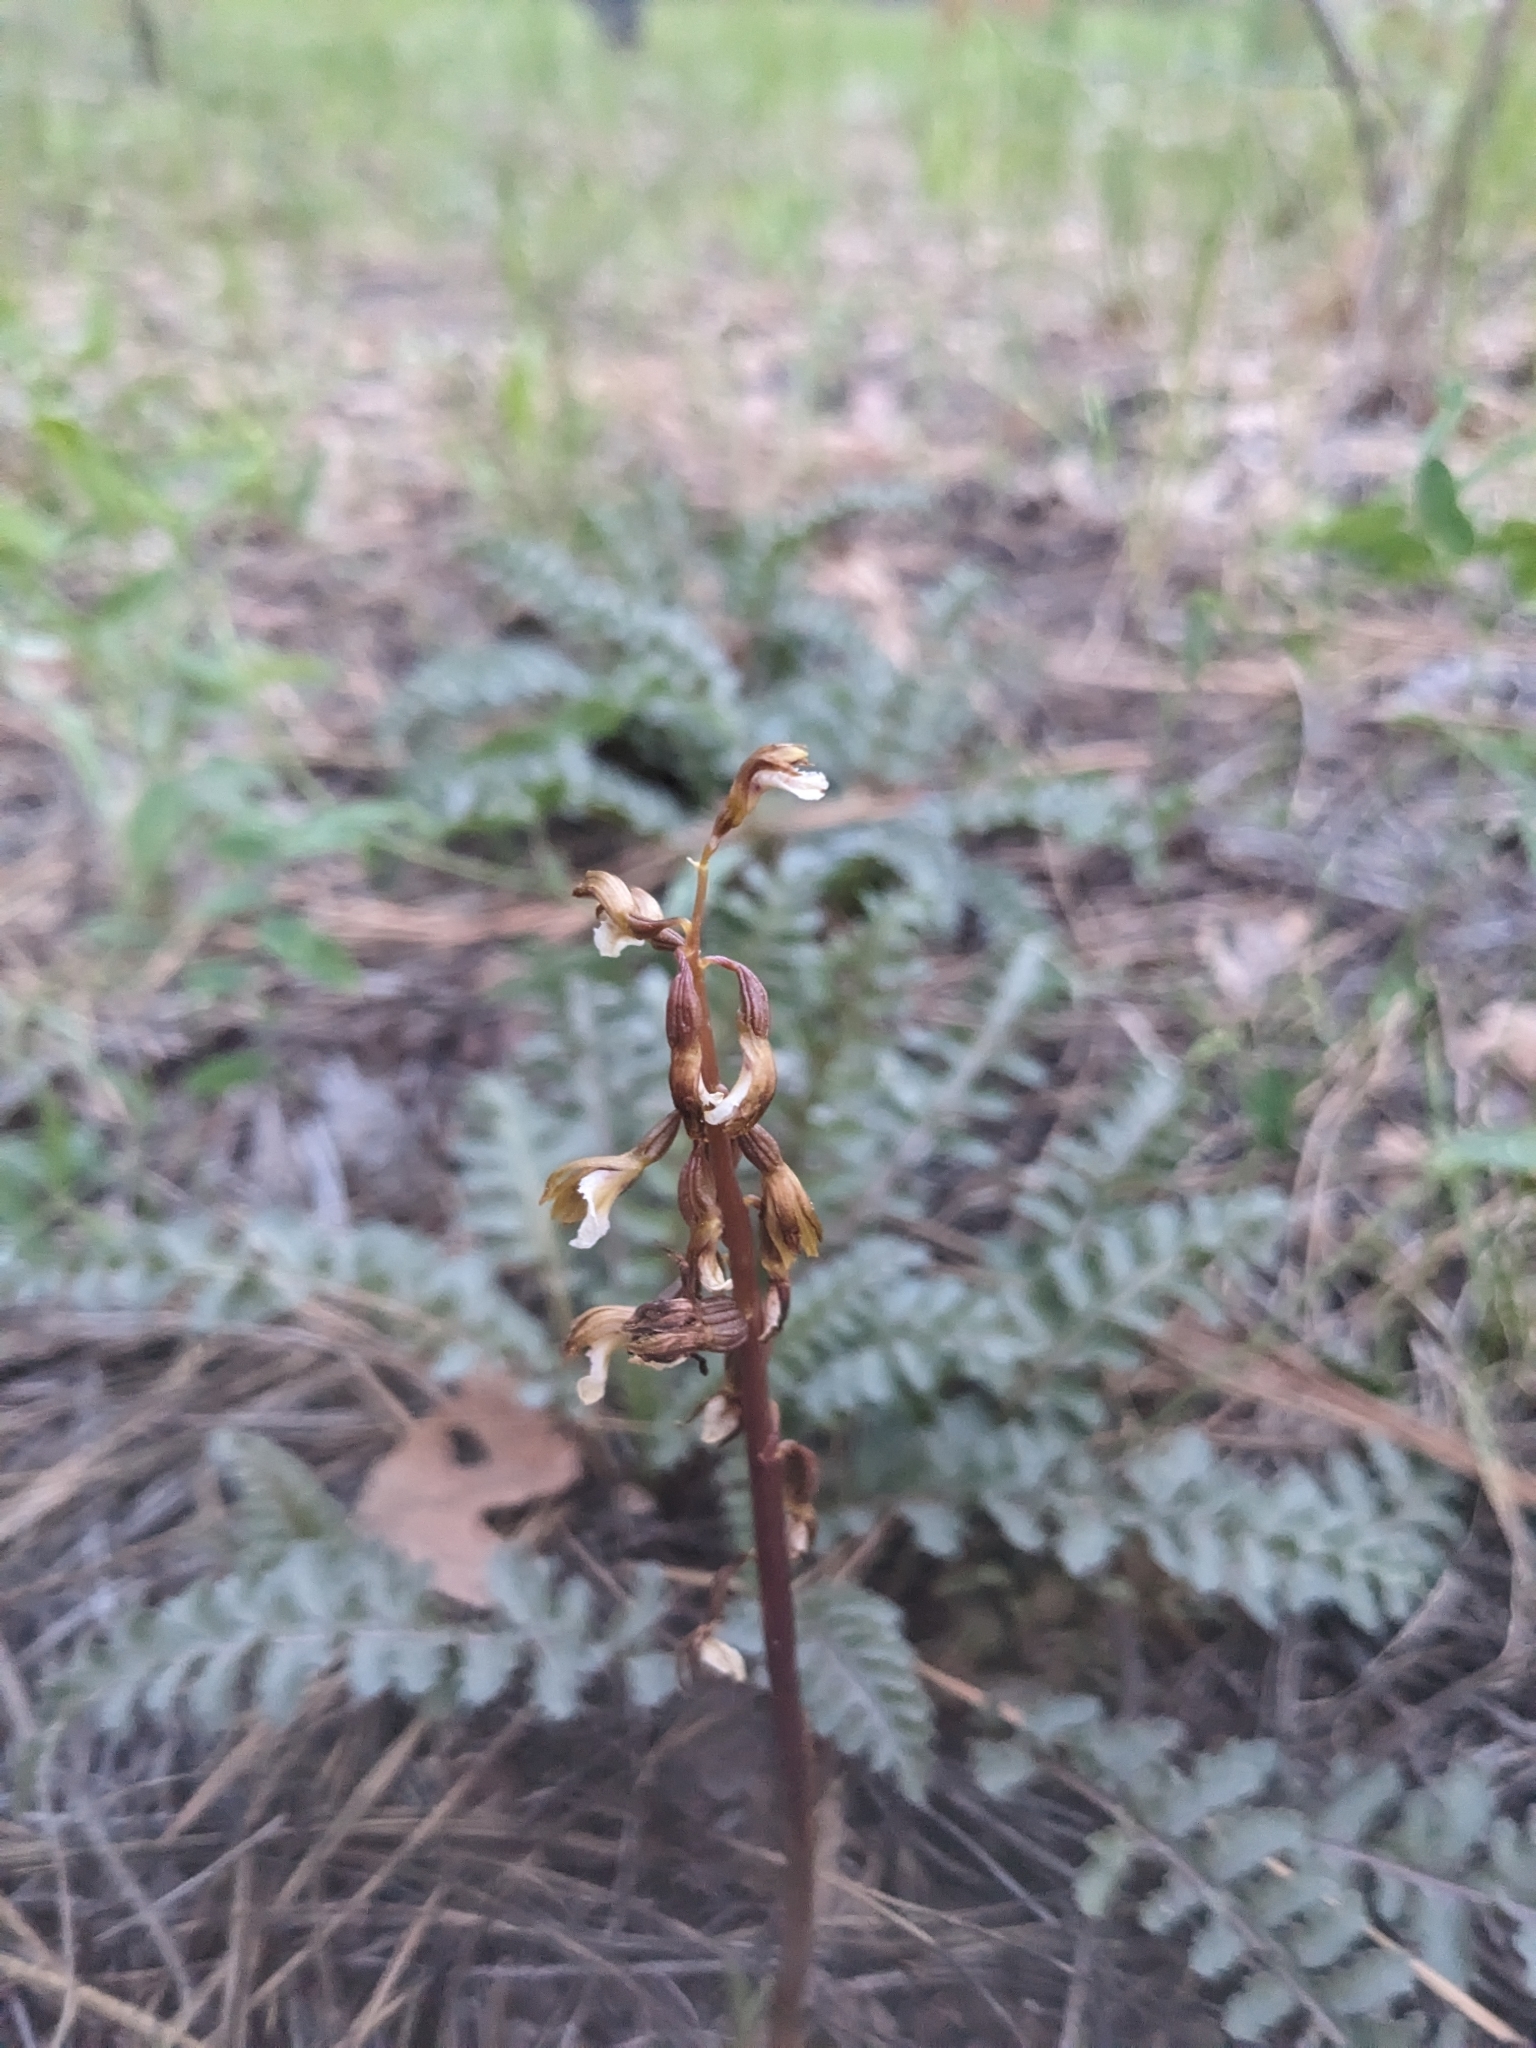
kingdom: Plantae
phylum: Tracheophyta
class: Liliopsida
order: Asparagales
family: Orchidaceae
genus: Corallorhiza
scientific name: Corallorhiza wisteriana
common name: Spring coralroot
